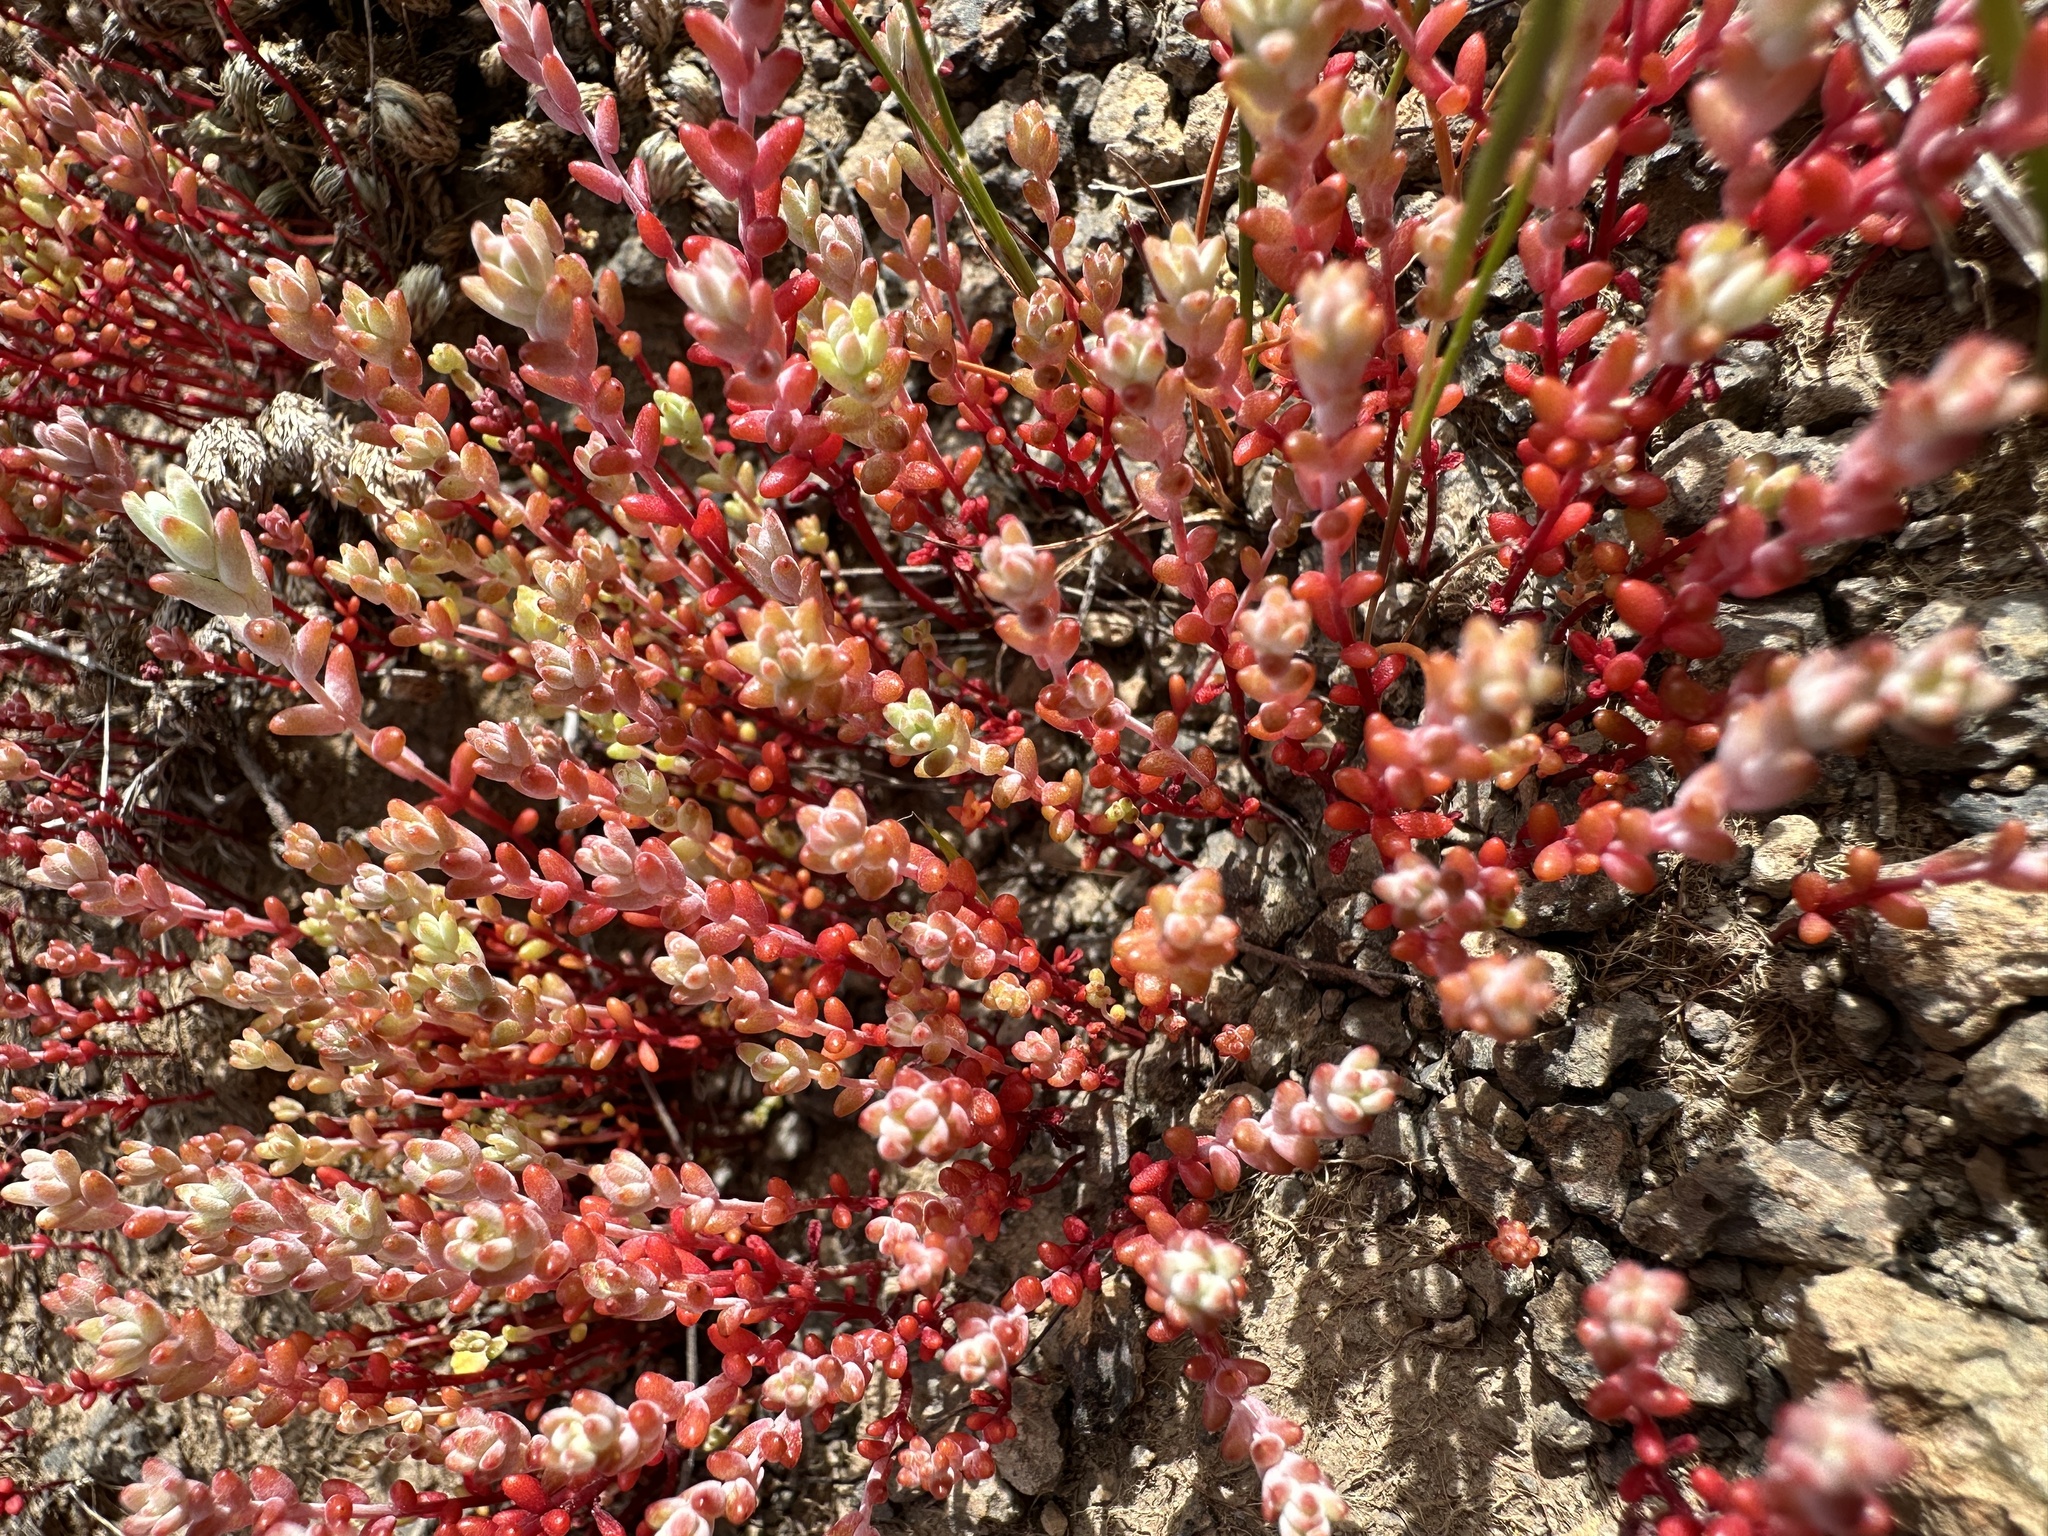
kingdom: Plantae
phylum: Tracheophyta
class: Magnoliopsida
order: Saxifragales
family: Crassulaceae
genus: Sedella
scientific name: Sedella pumila
